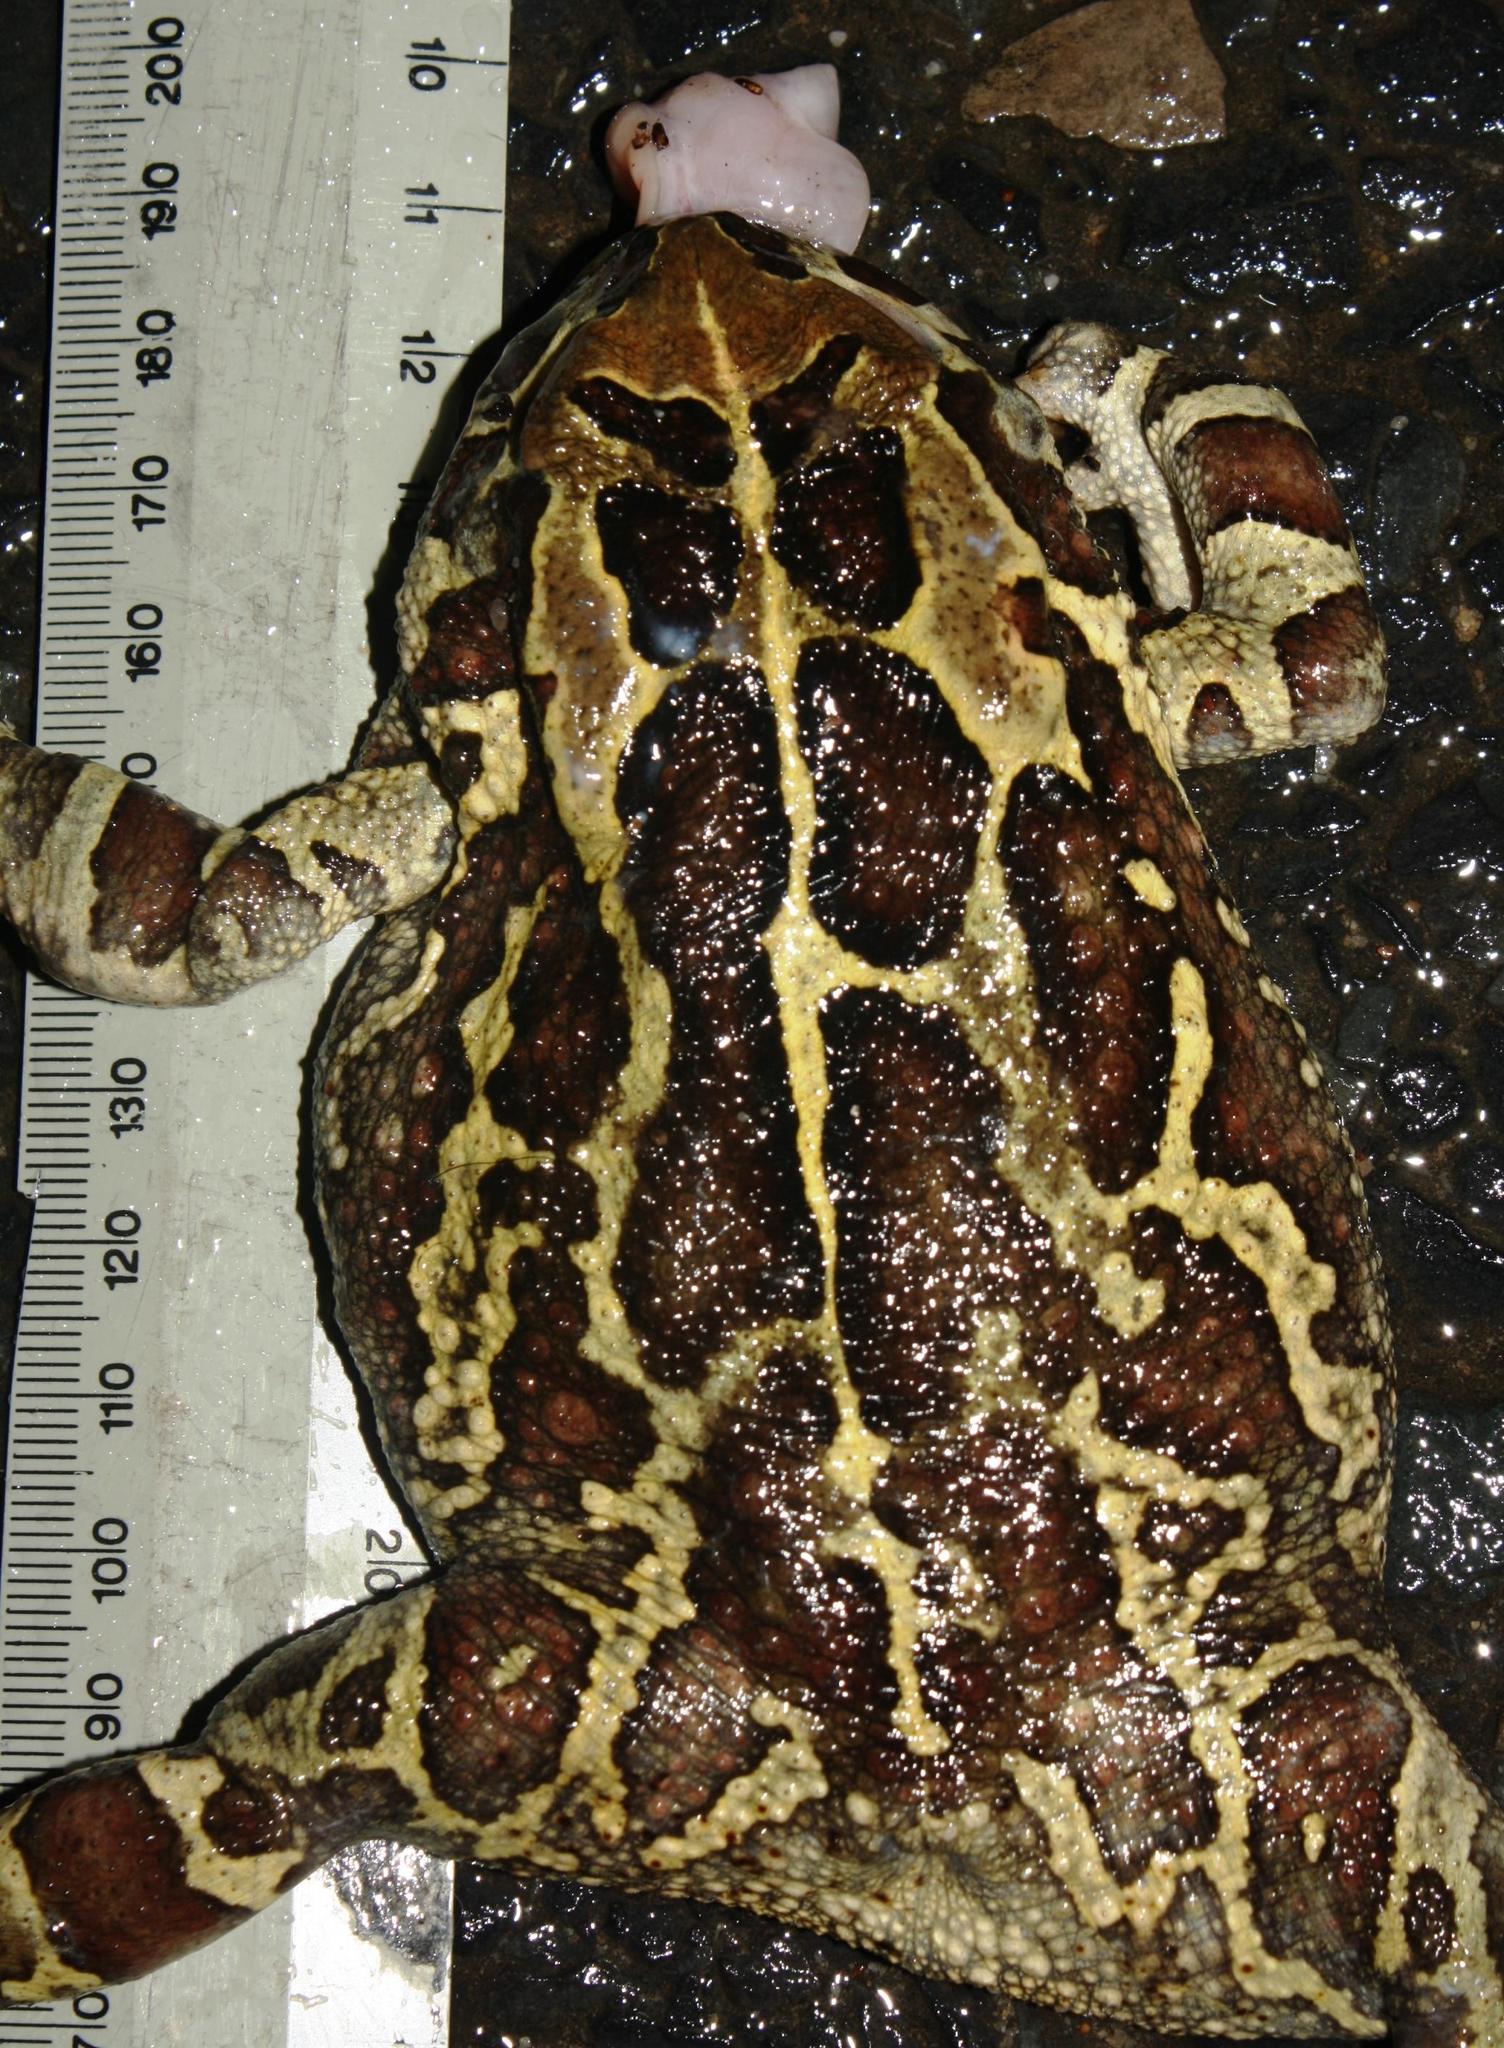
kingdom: Animalia
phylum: Chordata
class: Amphibia
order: Anura
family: Bufonidae
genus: Sclerophrys
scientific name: Sclerophrys pantherina
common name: Panther toad
